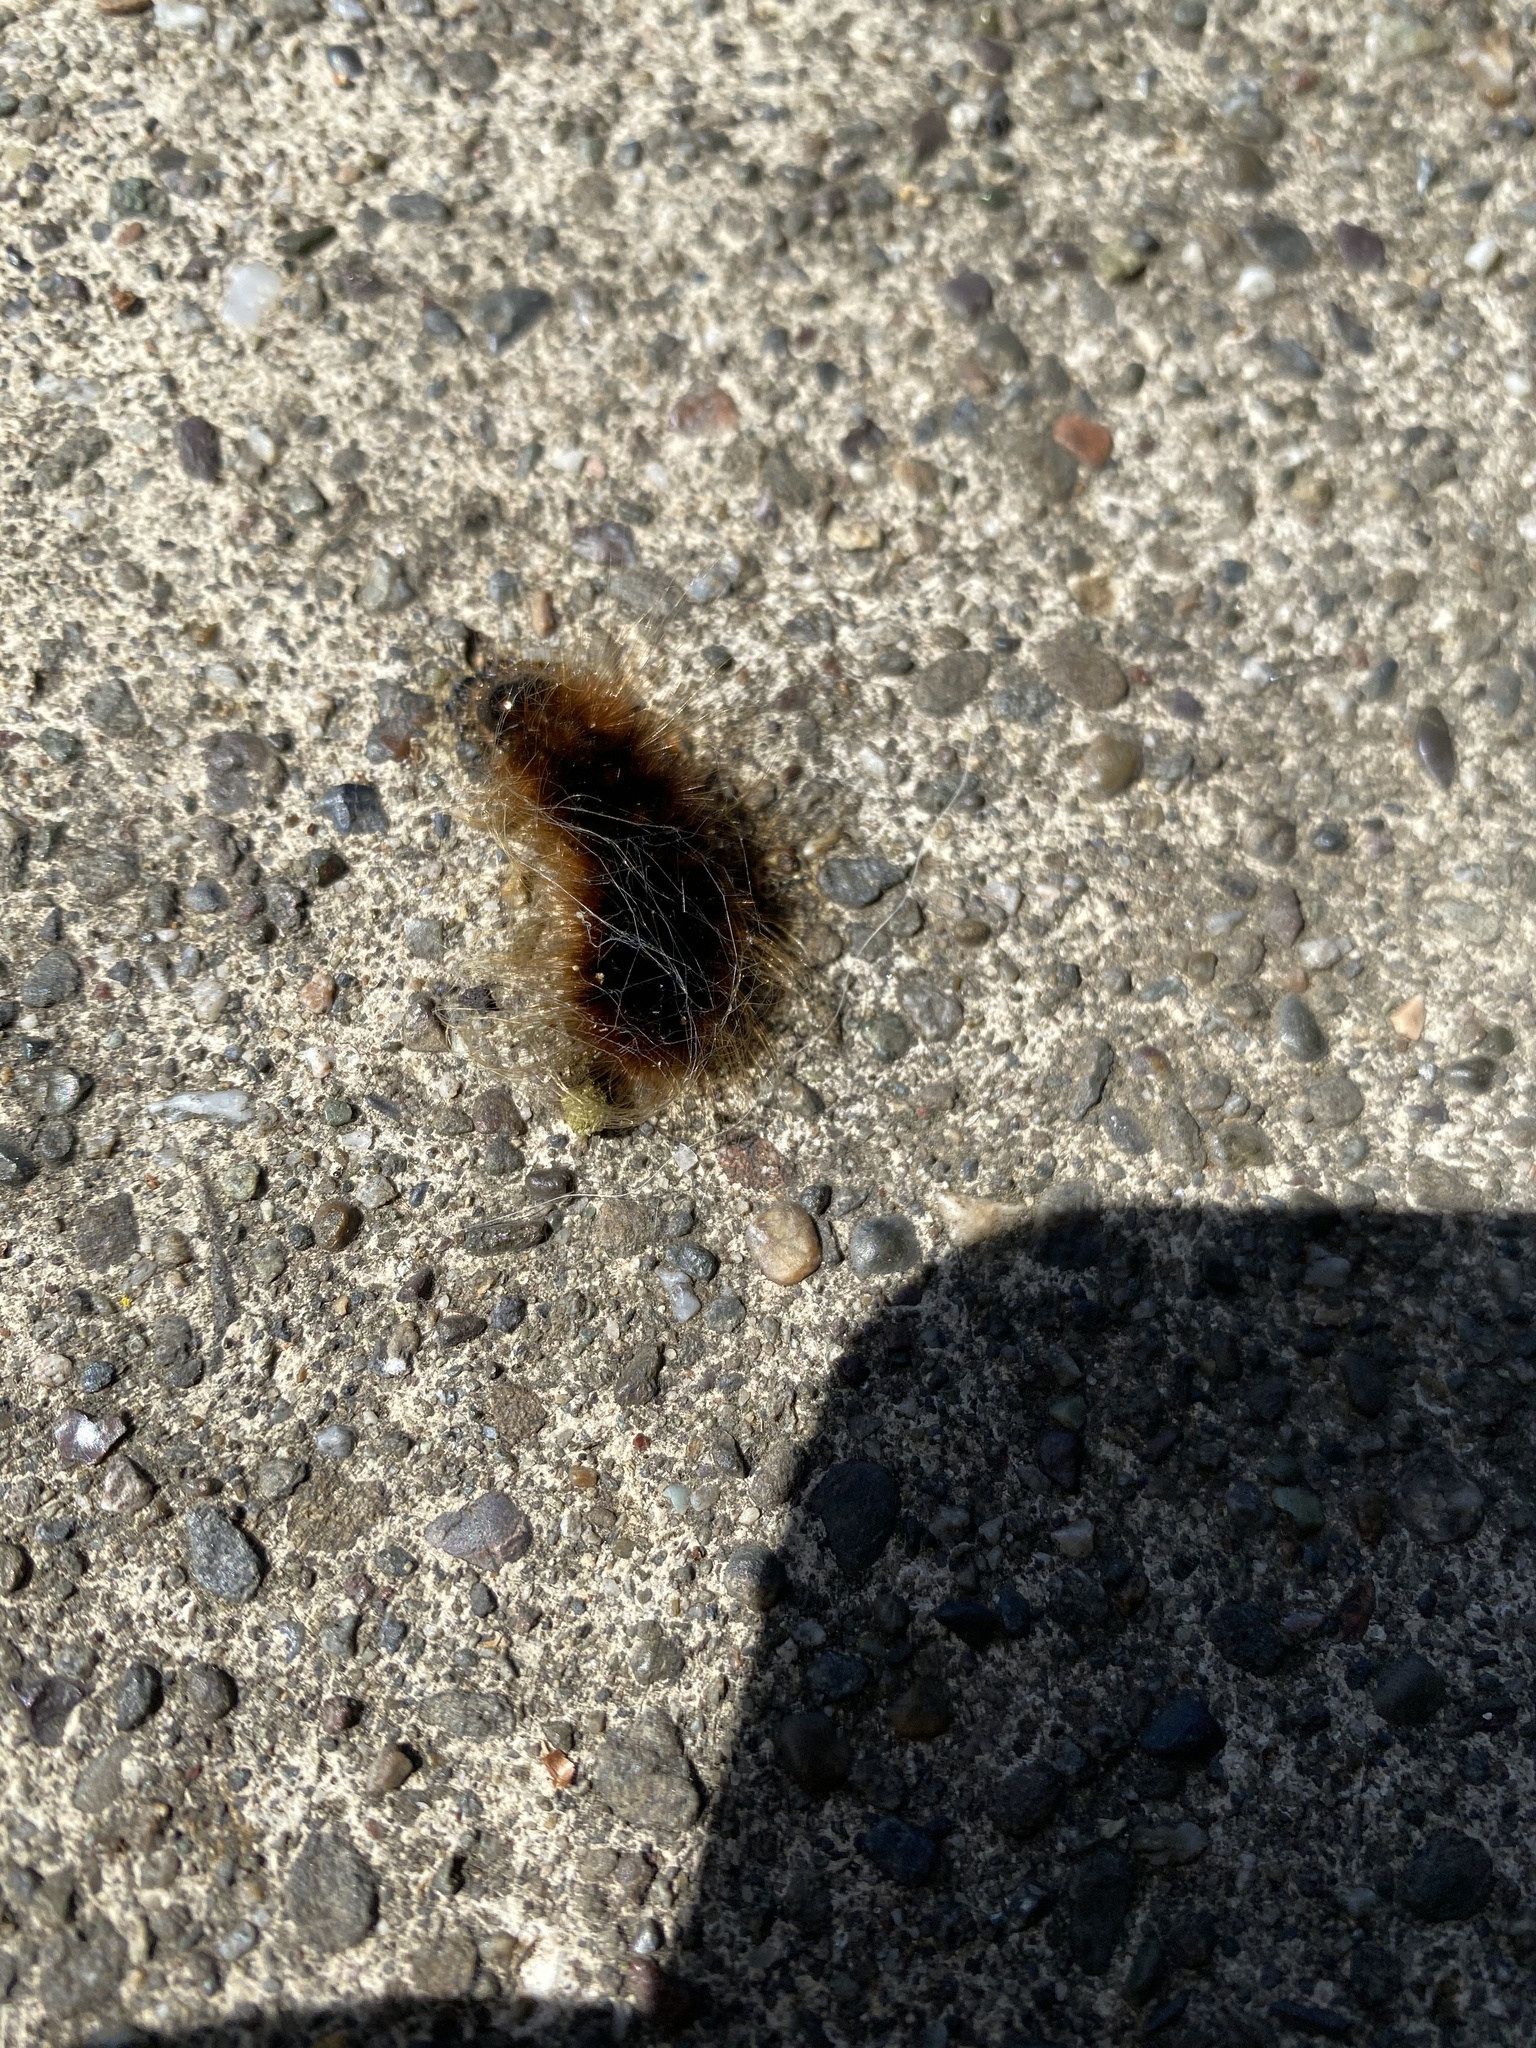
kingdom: Animalia
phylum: Arthropoda
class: Insecta
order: Lepidoptera
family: Erebidae
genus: Hemihyalea
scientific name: Hemihyalea edwardsii
